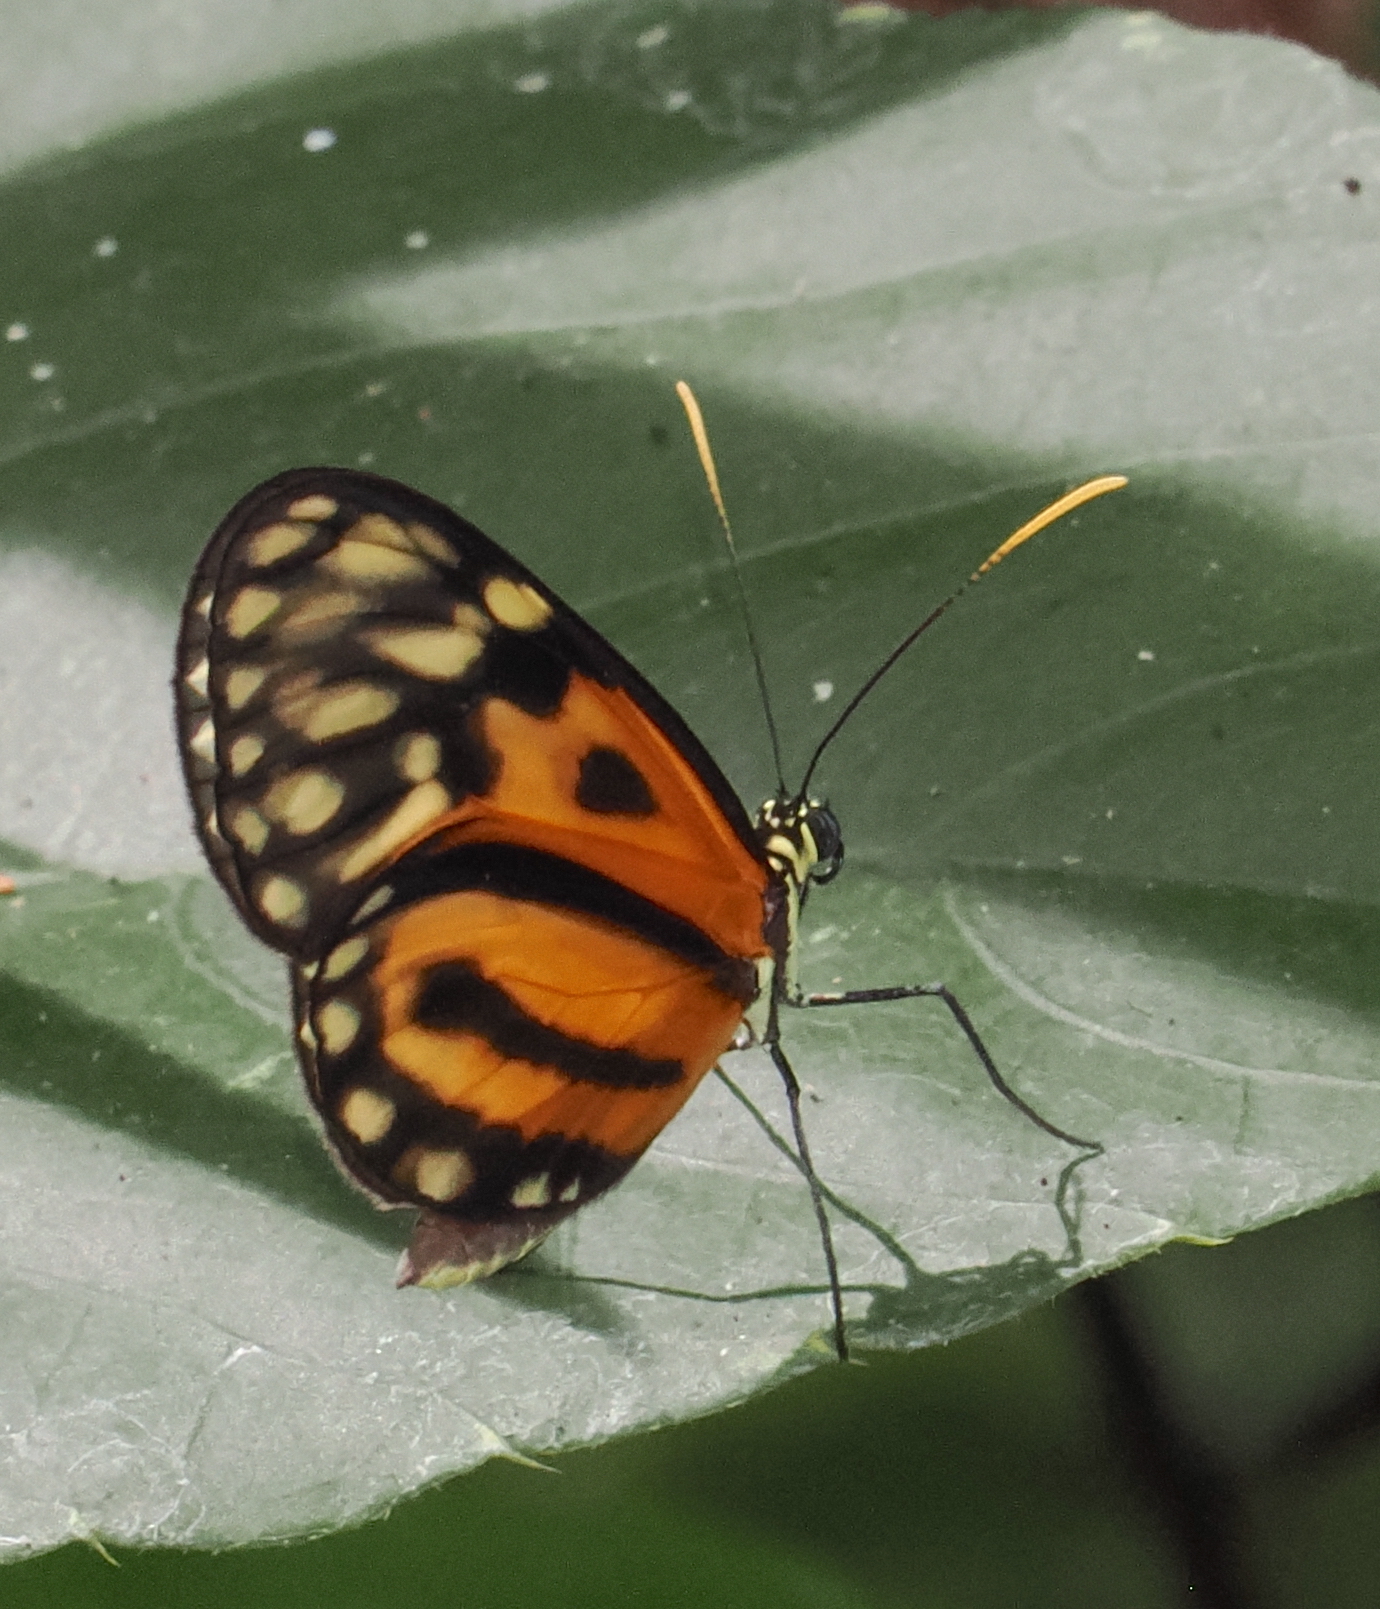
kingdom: Animalia
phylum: Arthropoda
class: Insecta
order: Lepidoptera
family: Nymphalidae
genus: Ceratinia
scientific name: Ceratinia iolaia
